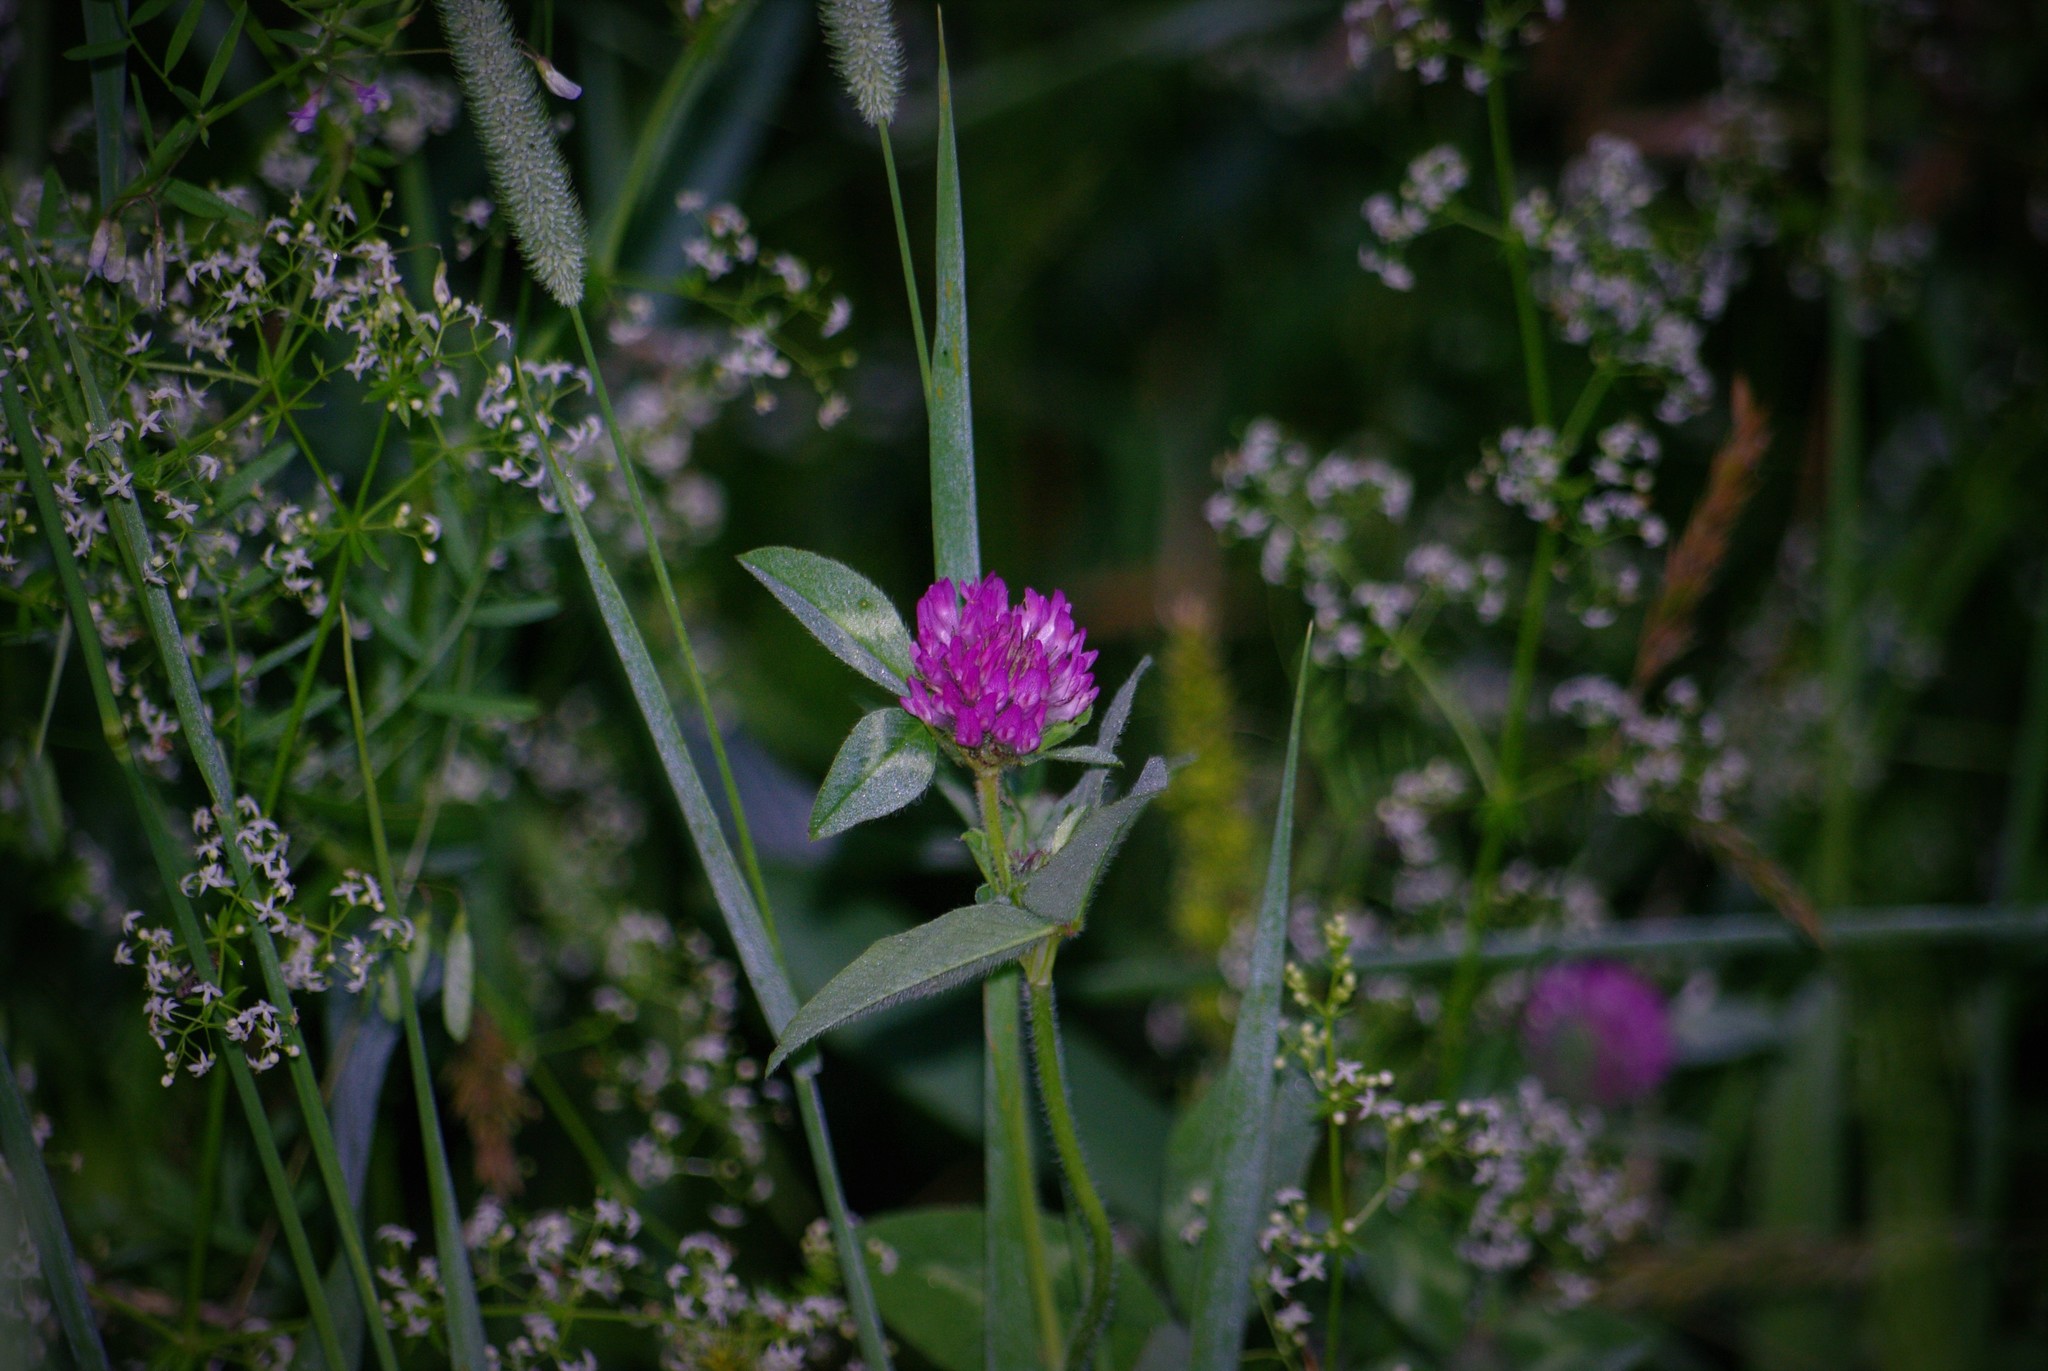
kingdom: Plantae
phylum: Tracheophyta
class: Magnoliopsida
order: Fabales
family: Fabaceae
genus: Trifolium
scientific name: Trifolium pratense
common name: Red clover
